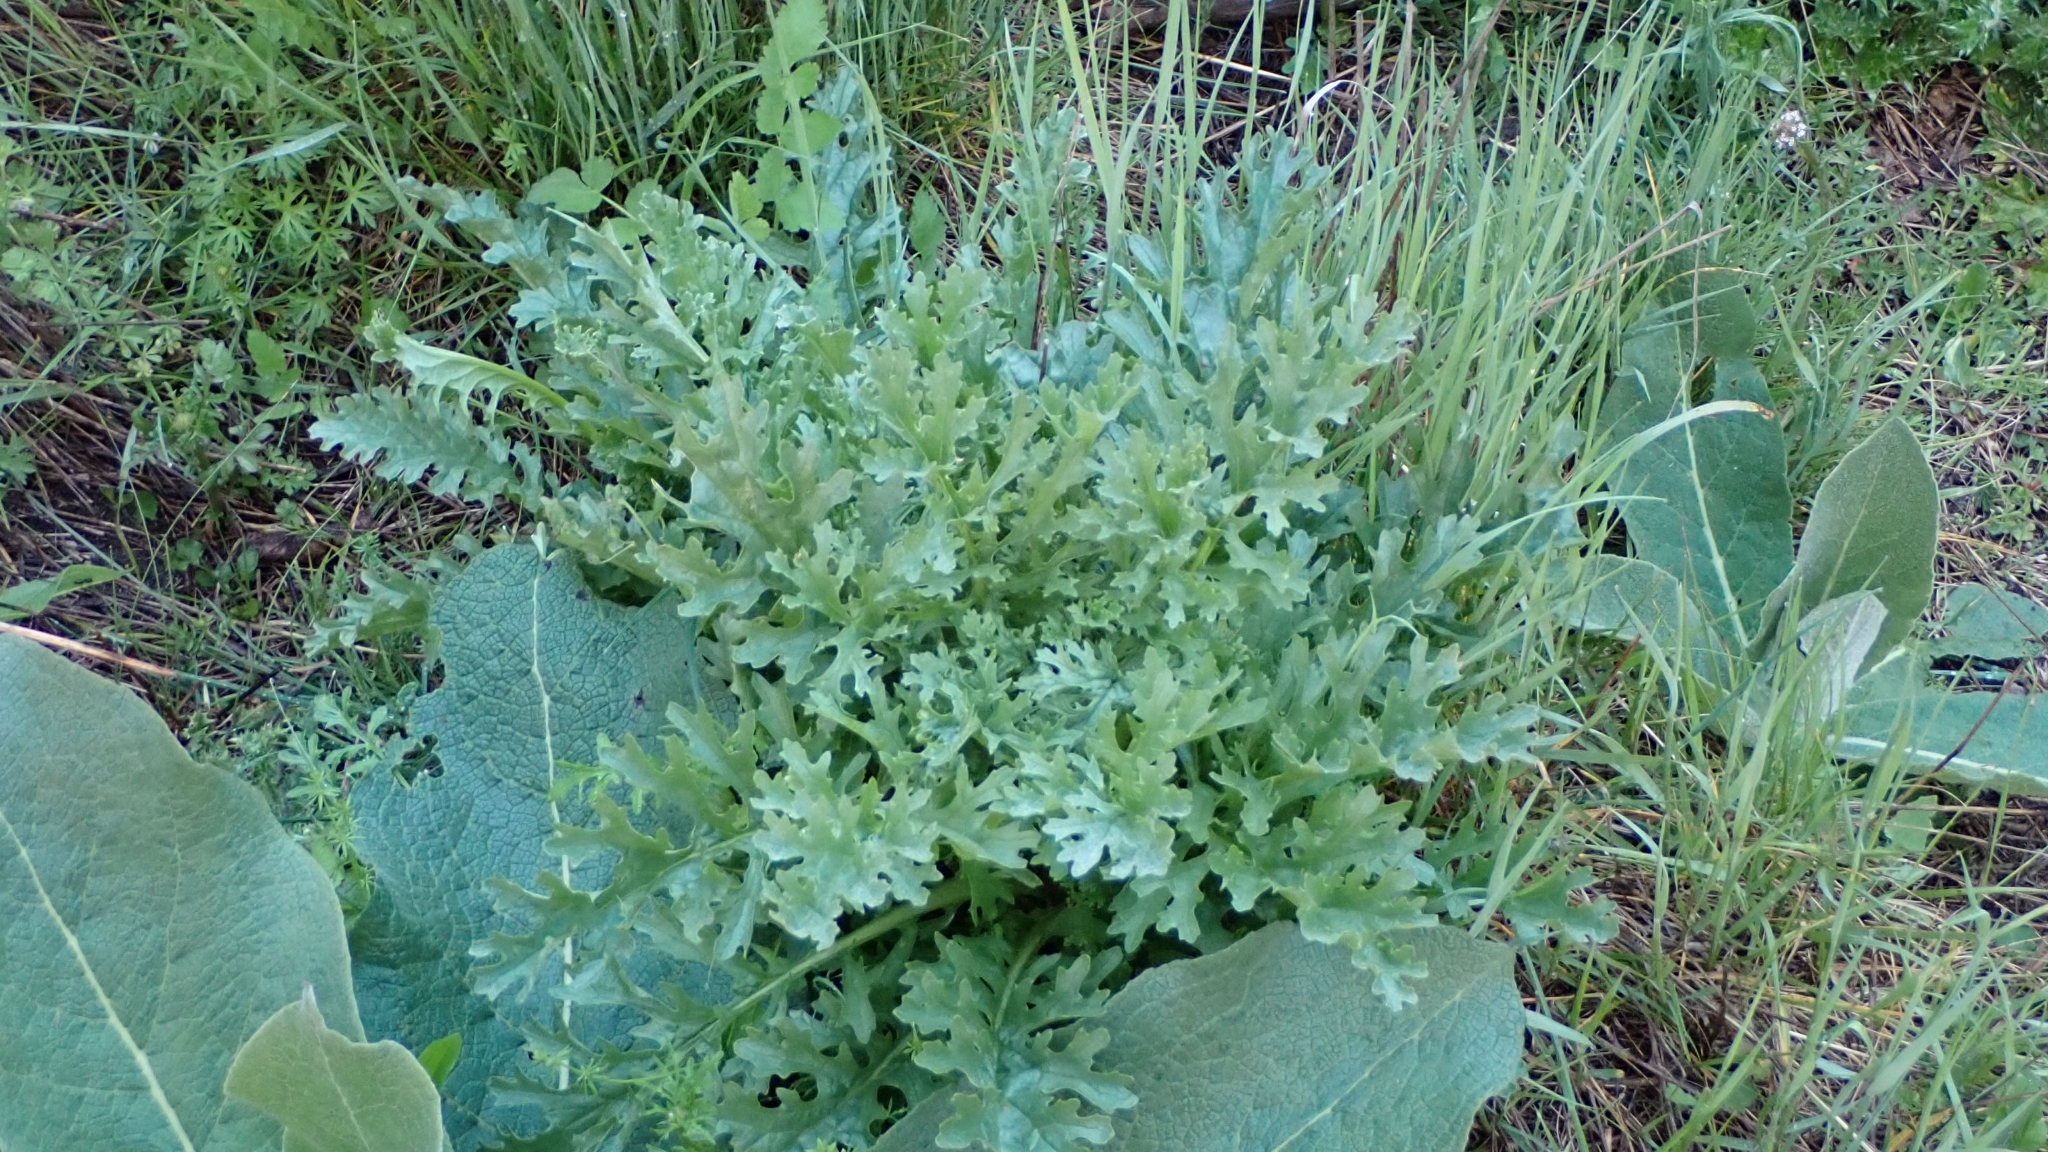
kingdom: Plantae
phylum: Tracheophyta
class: Magnoliopsida
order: Asterales
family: Asteraceae
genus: Jacobaea
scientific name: Jacobaea vulgaris
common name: Stinking willie
